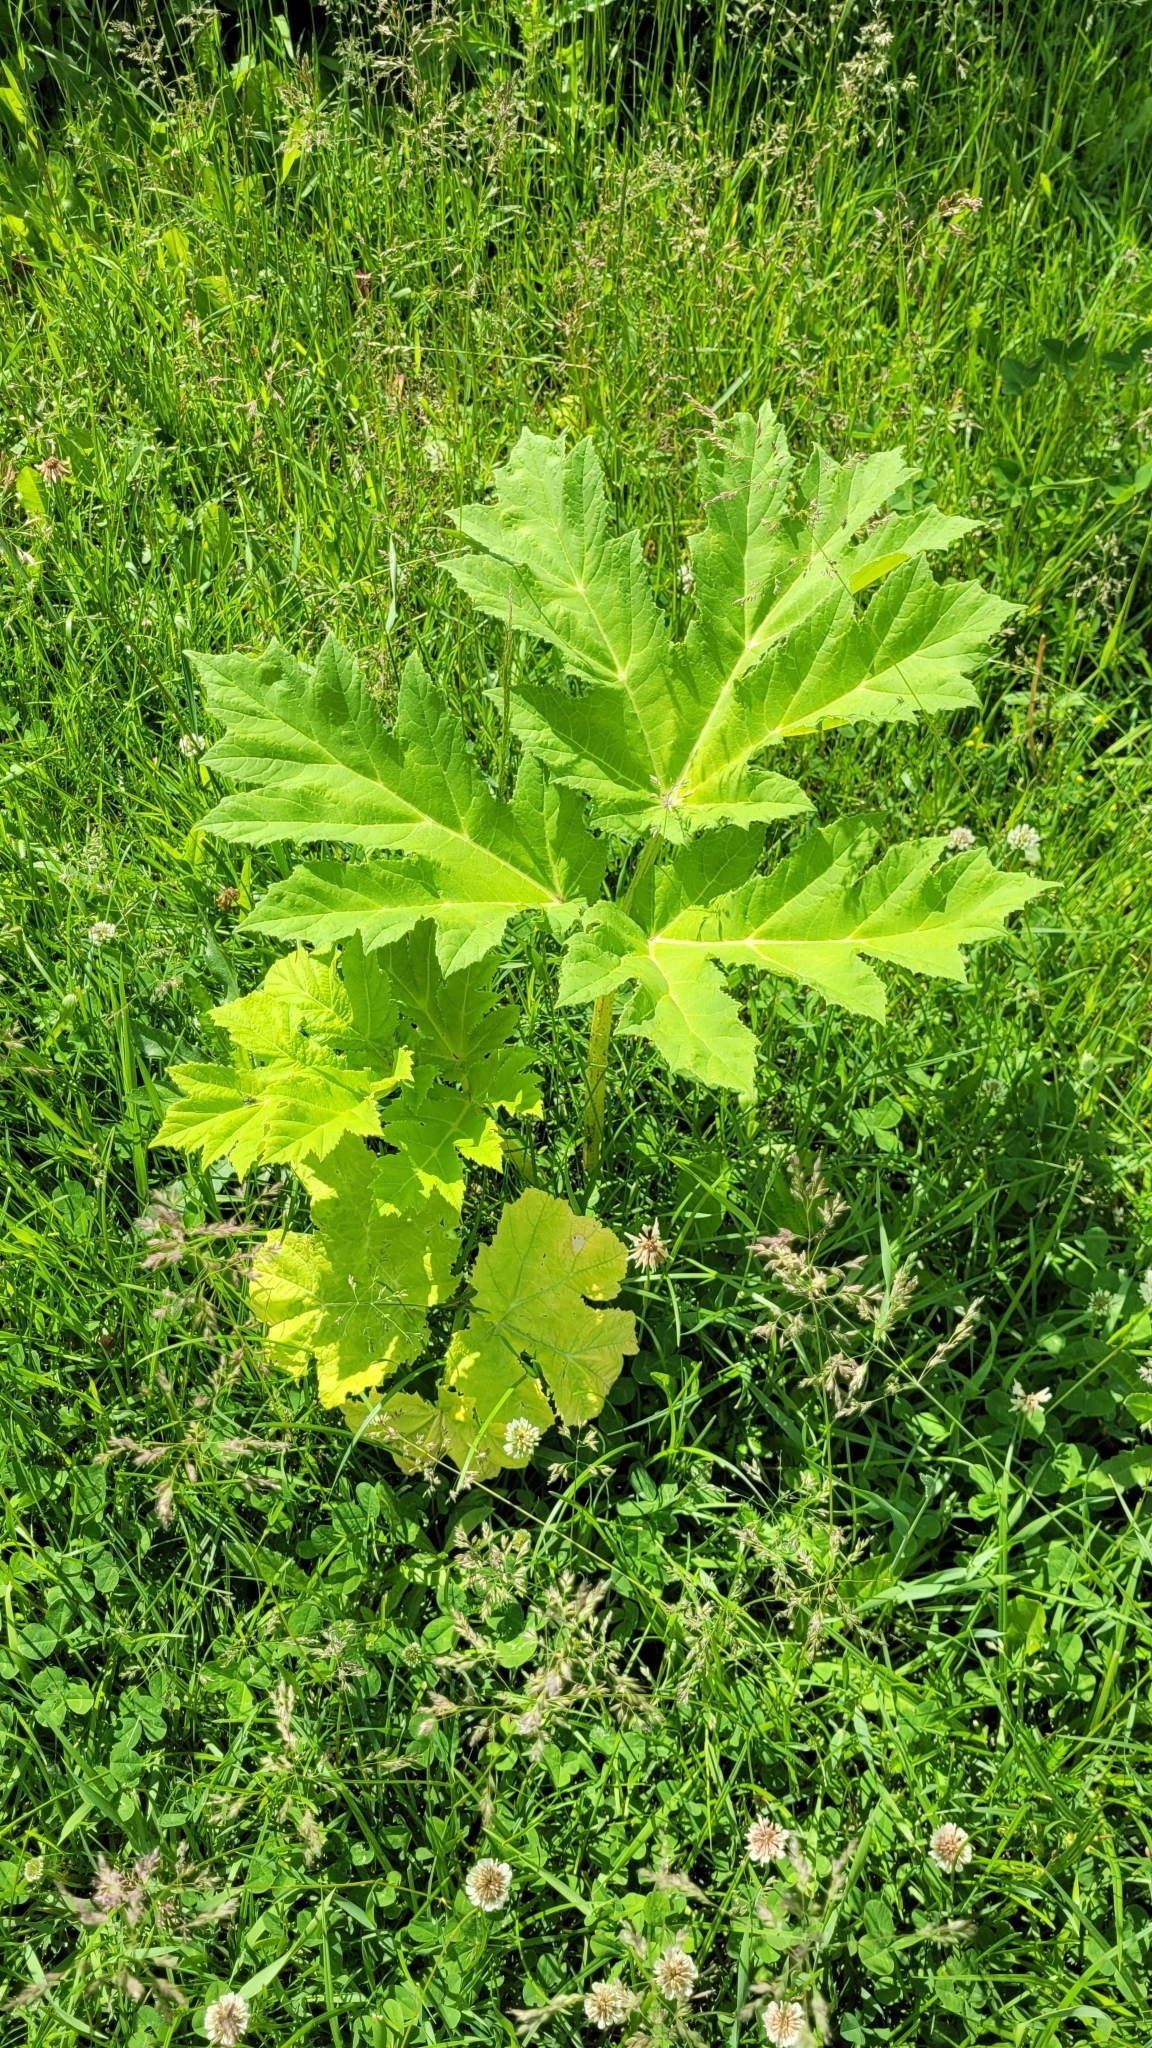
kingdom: Plantae
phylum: Tracheophyta
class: Magnoliopsida
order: Apiales
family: Apiaceae
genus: Heracleum
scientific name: Heracleum sosnowskyi
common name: Sosnowsky's hogweed
